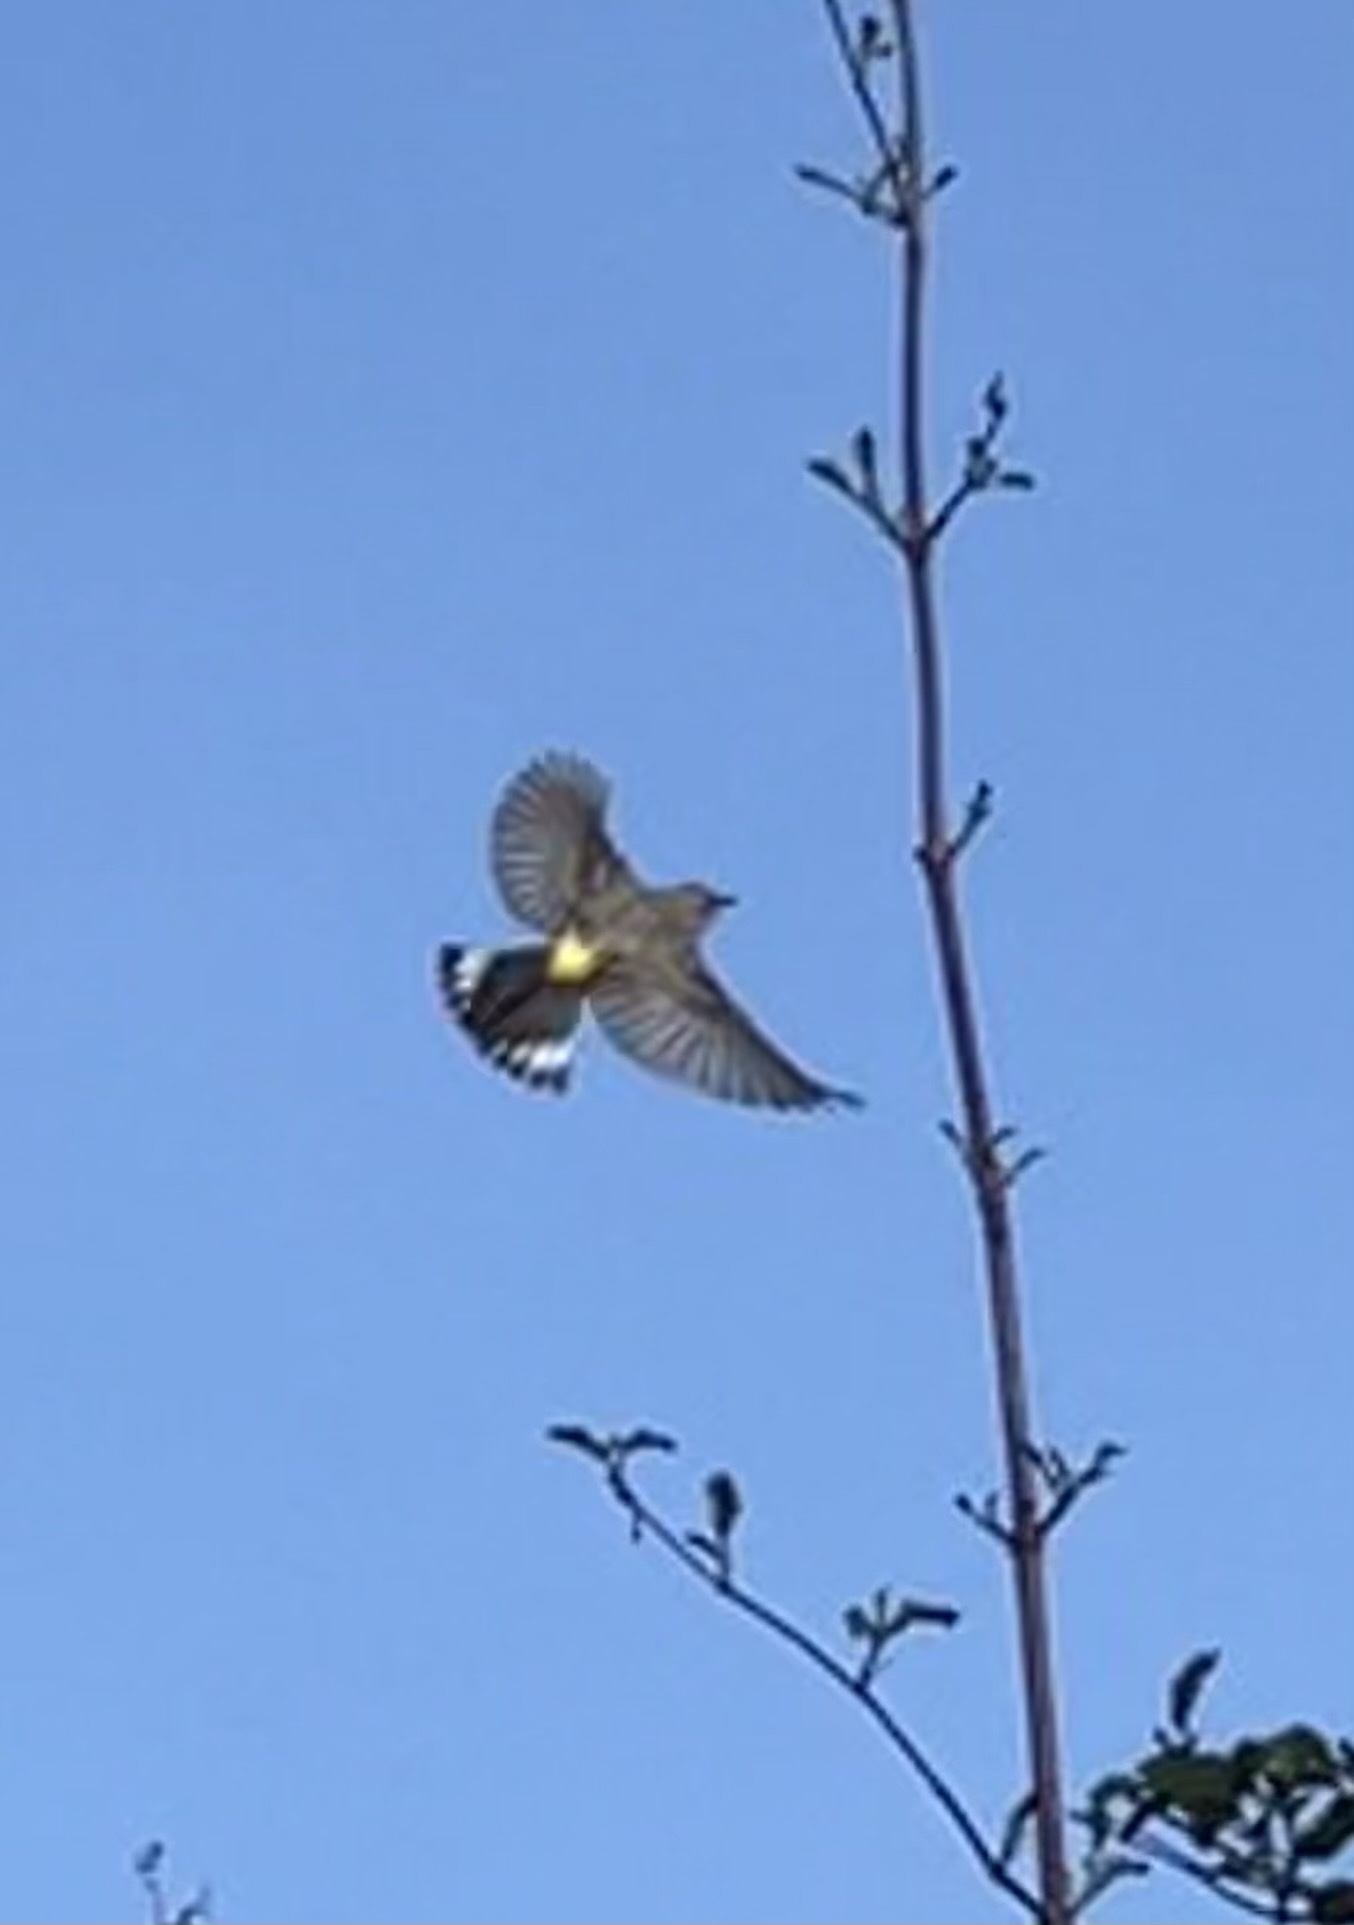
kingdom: Animalia
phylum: Chordata
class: Aves
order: Passeriformes
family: Parulidae
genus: Setophaga
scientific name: Setophaga coronata
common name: Myrtle warbler
